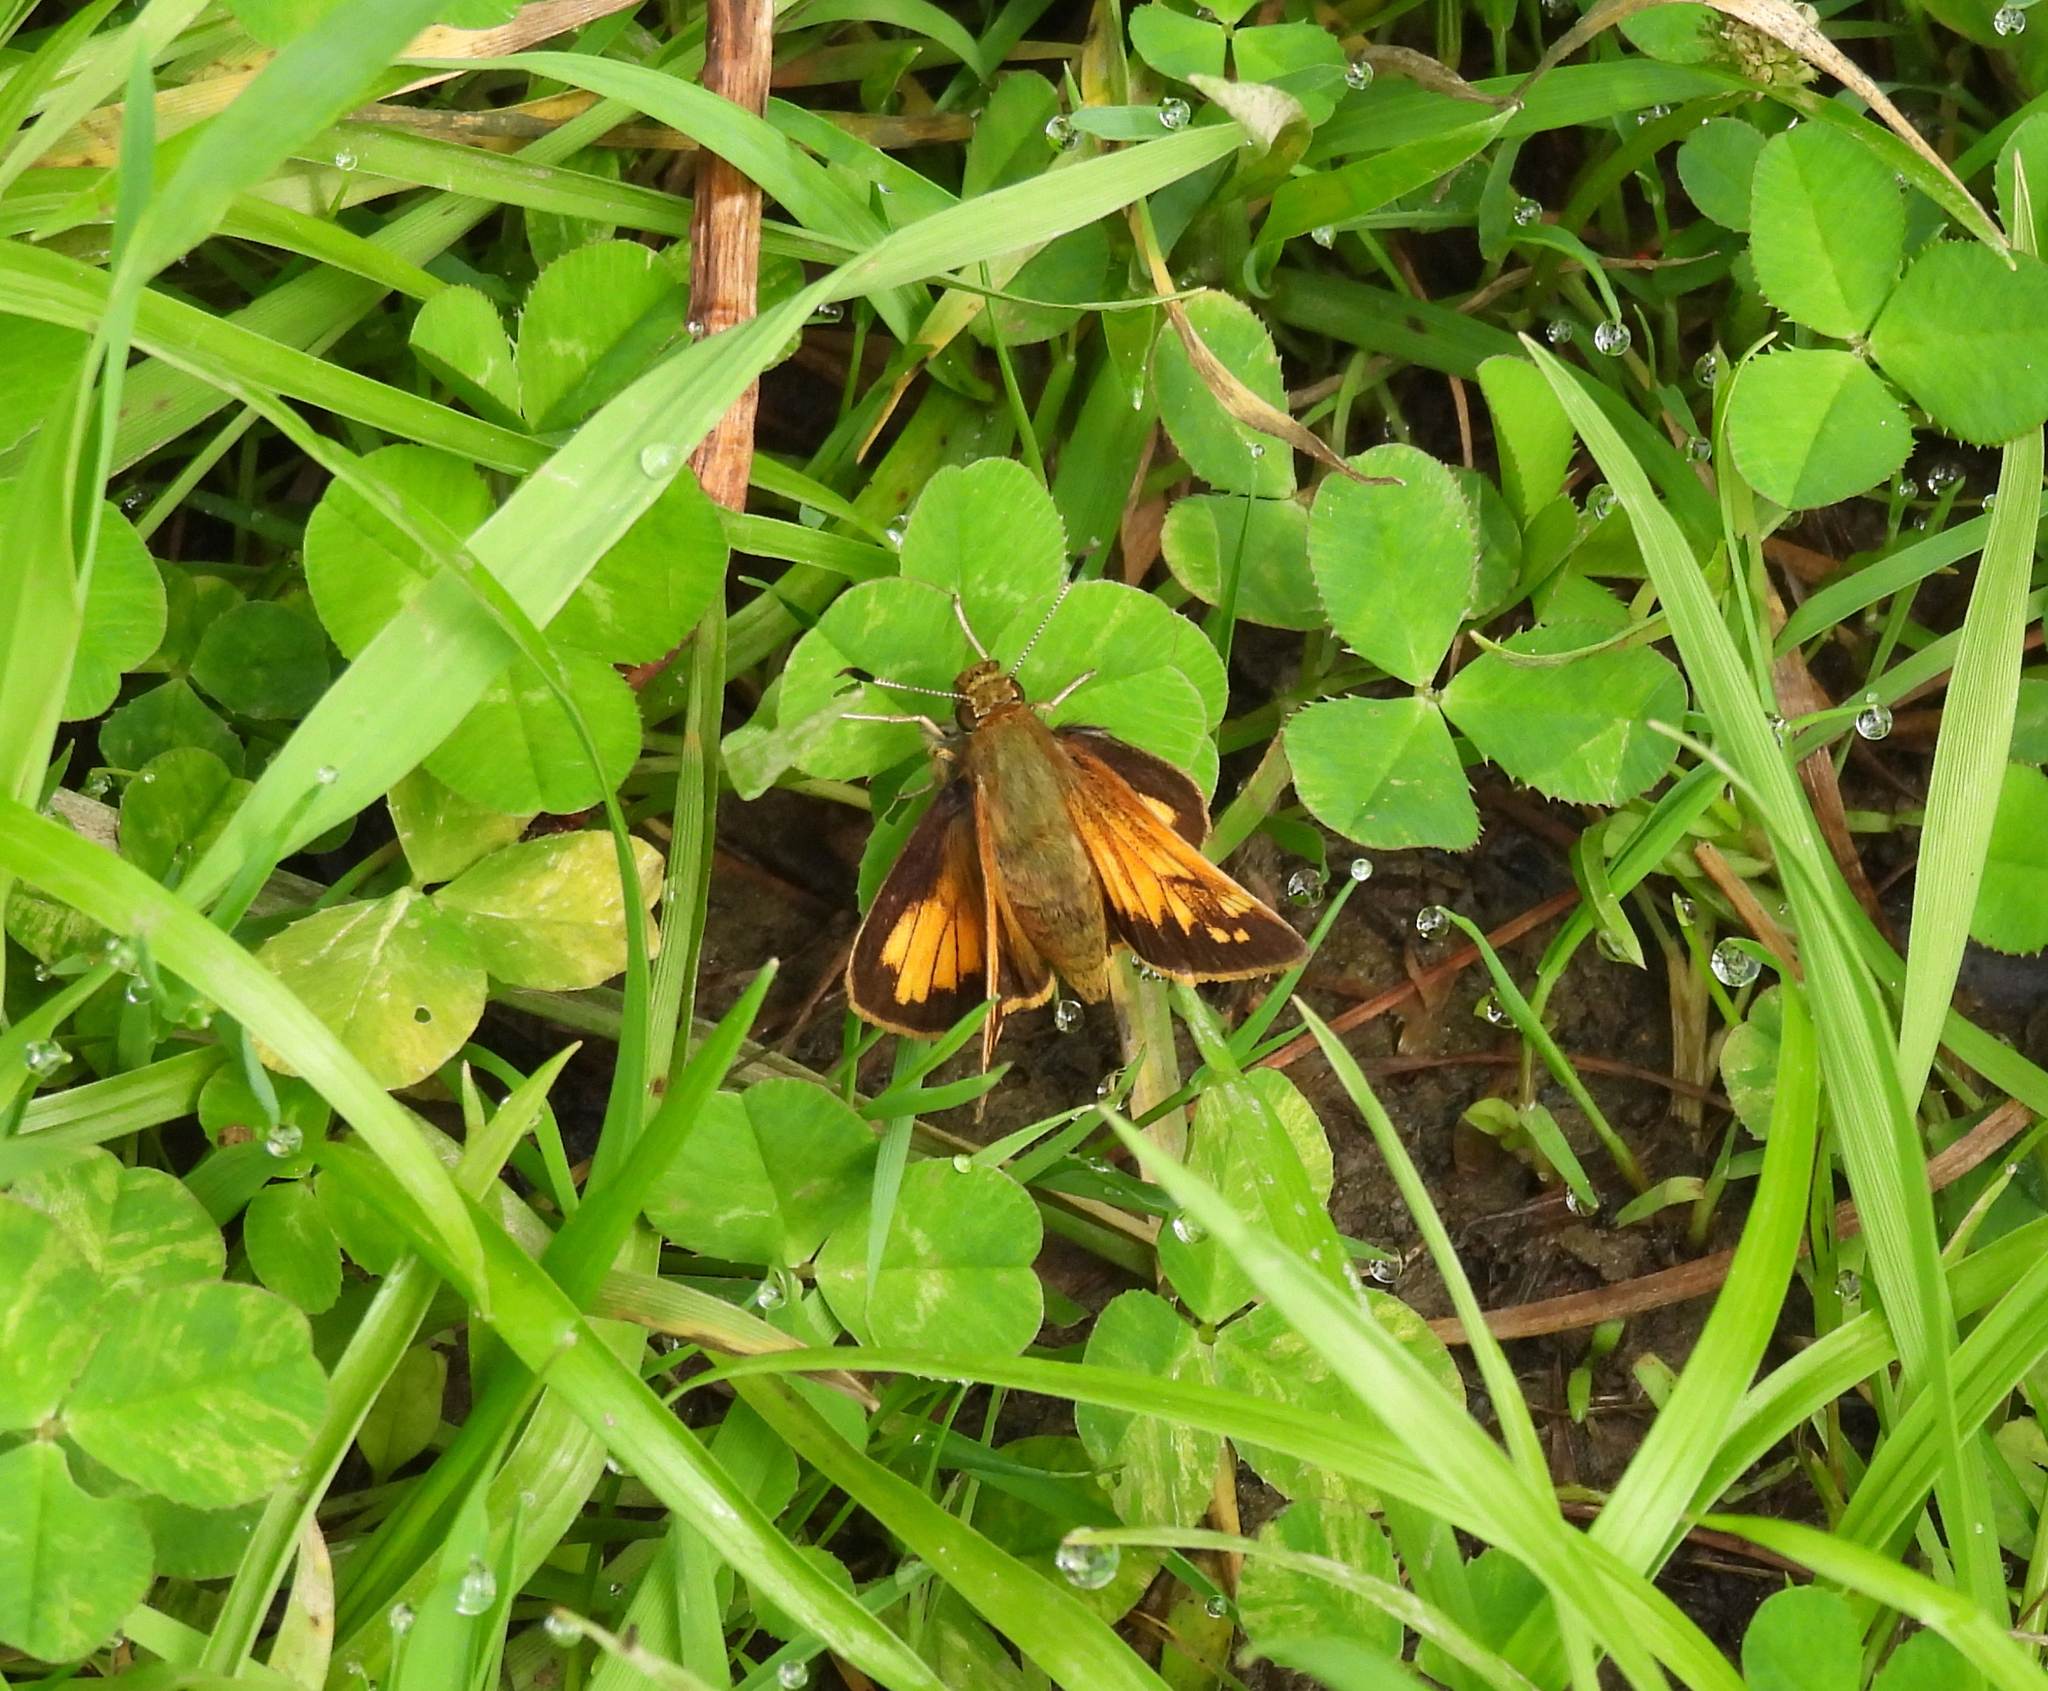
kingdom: Animalia
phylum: Arthropoda
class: Insecta
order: Lepidoptera
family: Hesperiidae
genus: Lon
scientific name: Lon hobomok
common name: Hobomok skipper
